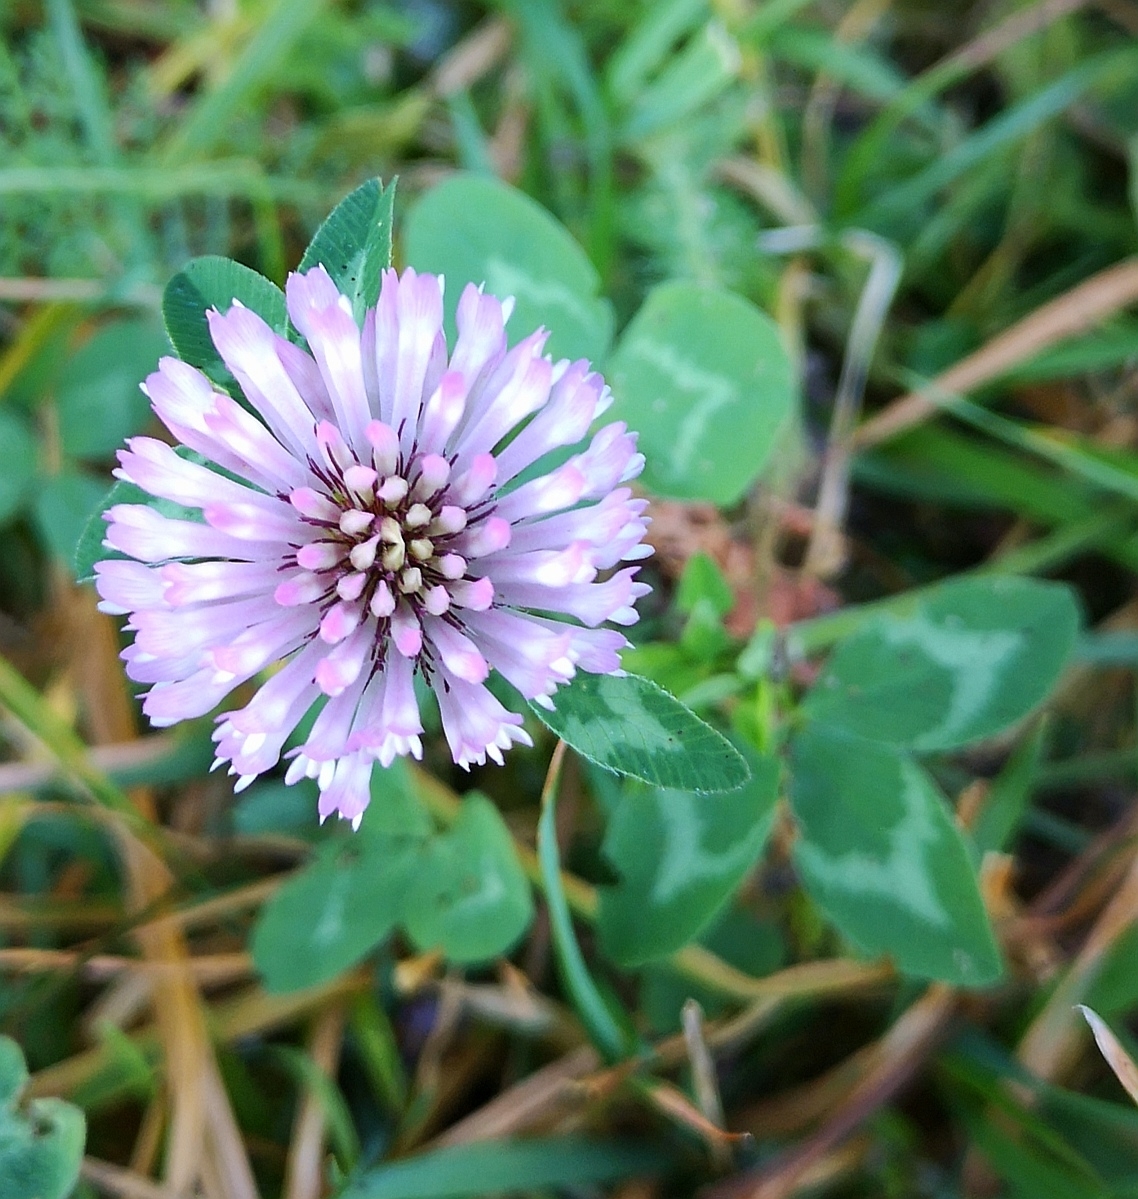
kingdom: Plantae
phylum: Tracheophyta
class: Magnoliopsida
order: Fabales
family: Fabaceae
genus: Trifolium
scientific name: Trifolium pratense
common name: Red clover
